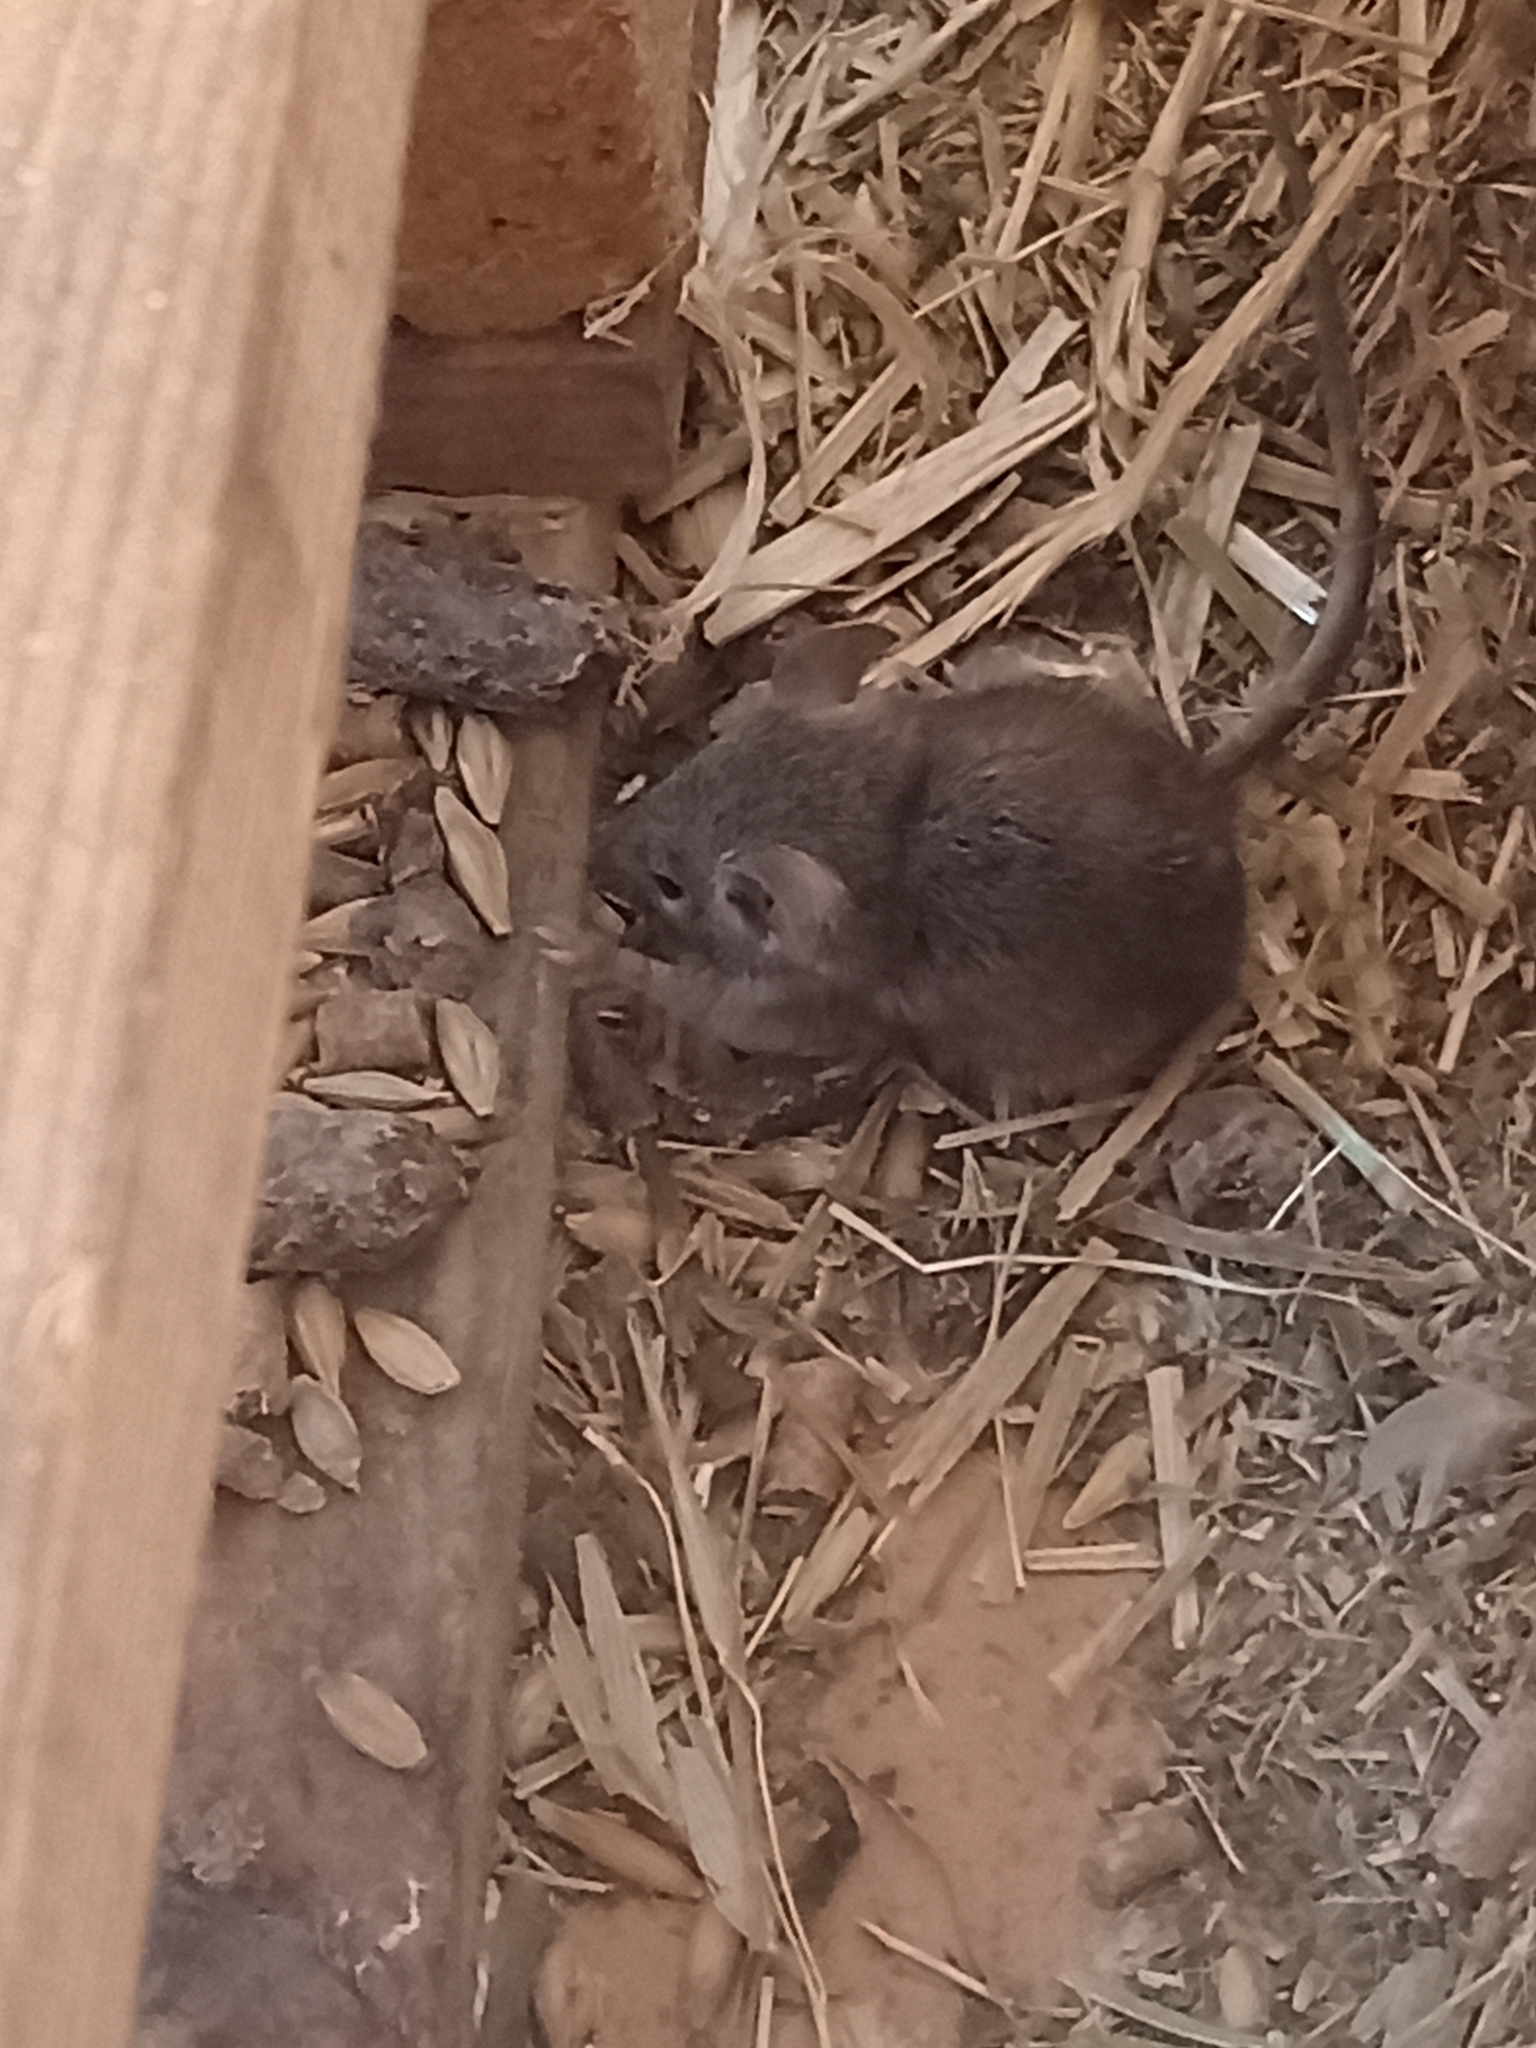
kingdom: Animalia
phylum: Chordata
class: Mammalia
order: Rodentia
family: Muridae
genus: Mus
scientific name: Mus musculus
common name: House mouse
